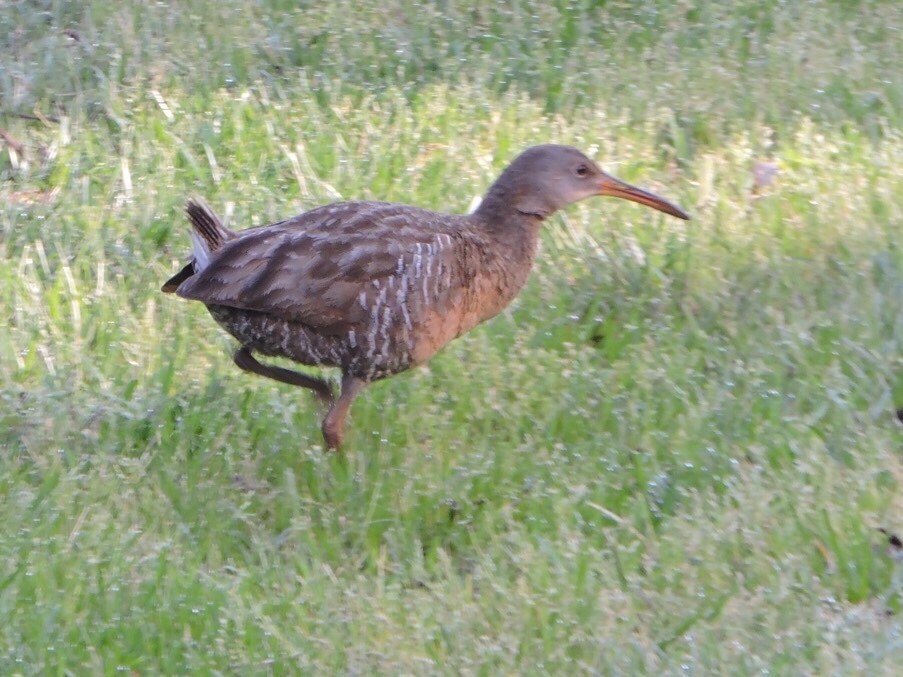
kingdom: Animalia
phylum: Chordata
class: Aves
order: Gruiformes
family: Rallidae
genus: Rallus
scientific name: Rallus crepitans
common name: Clapper rail
